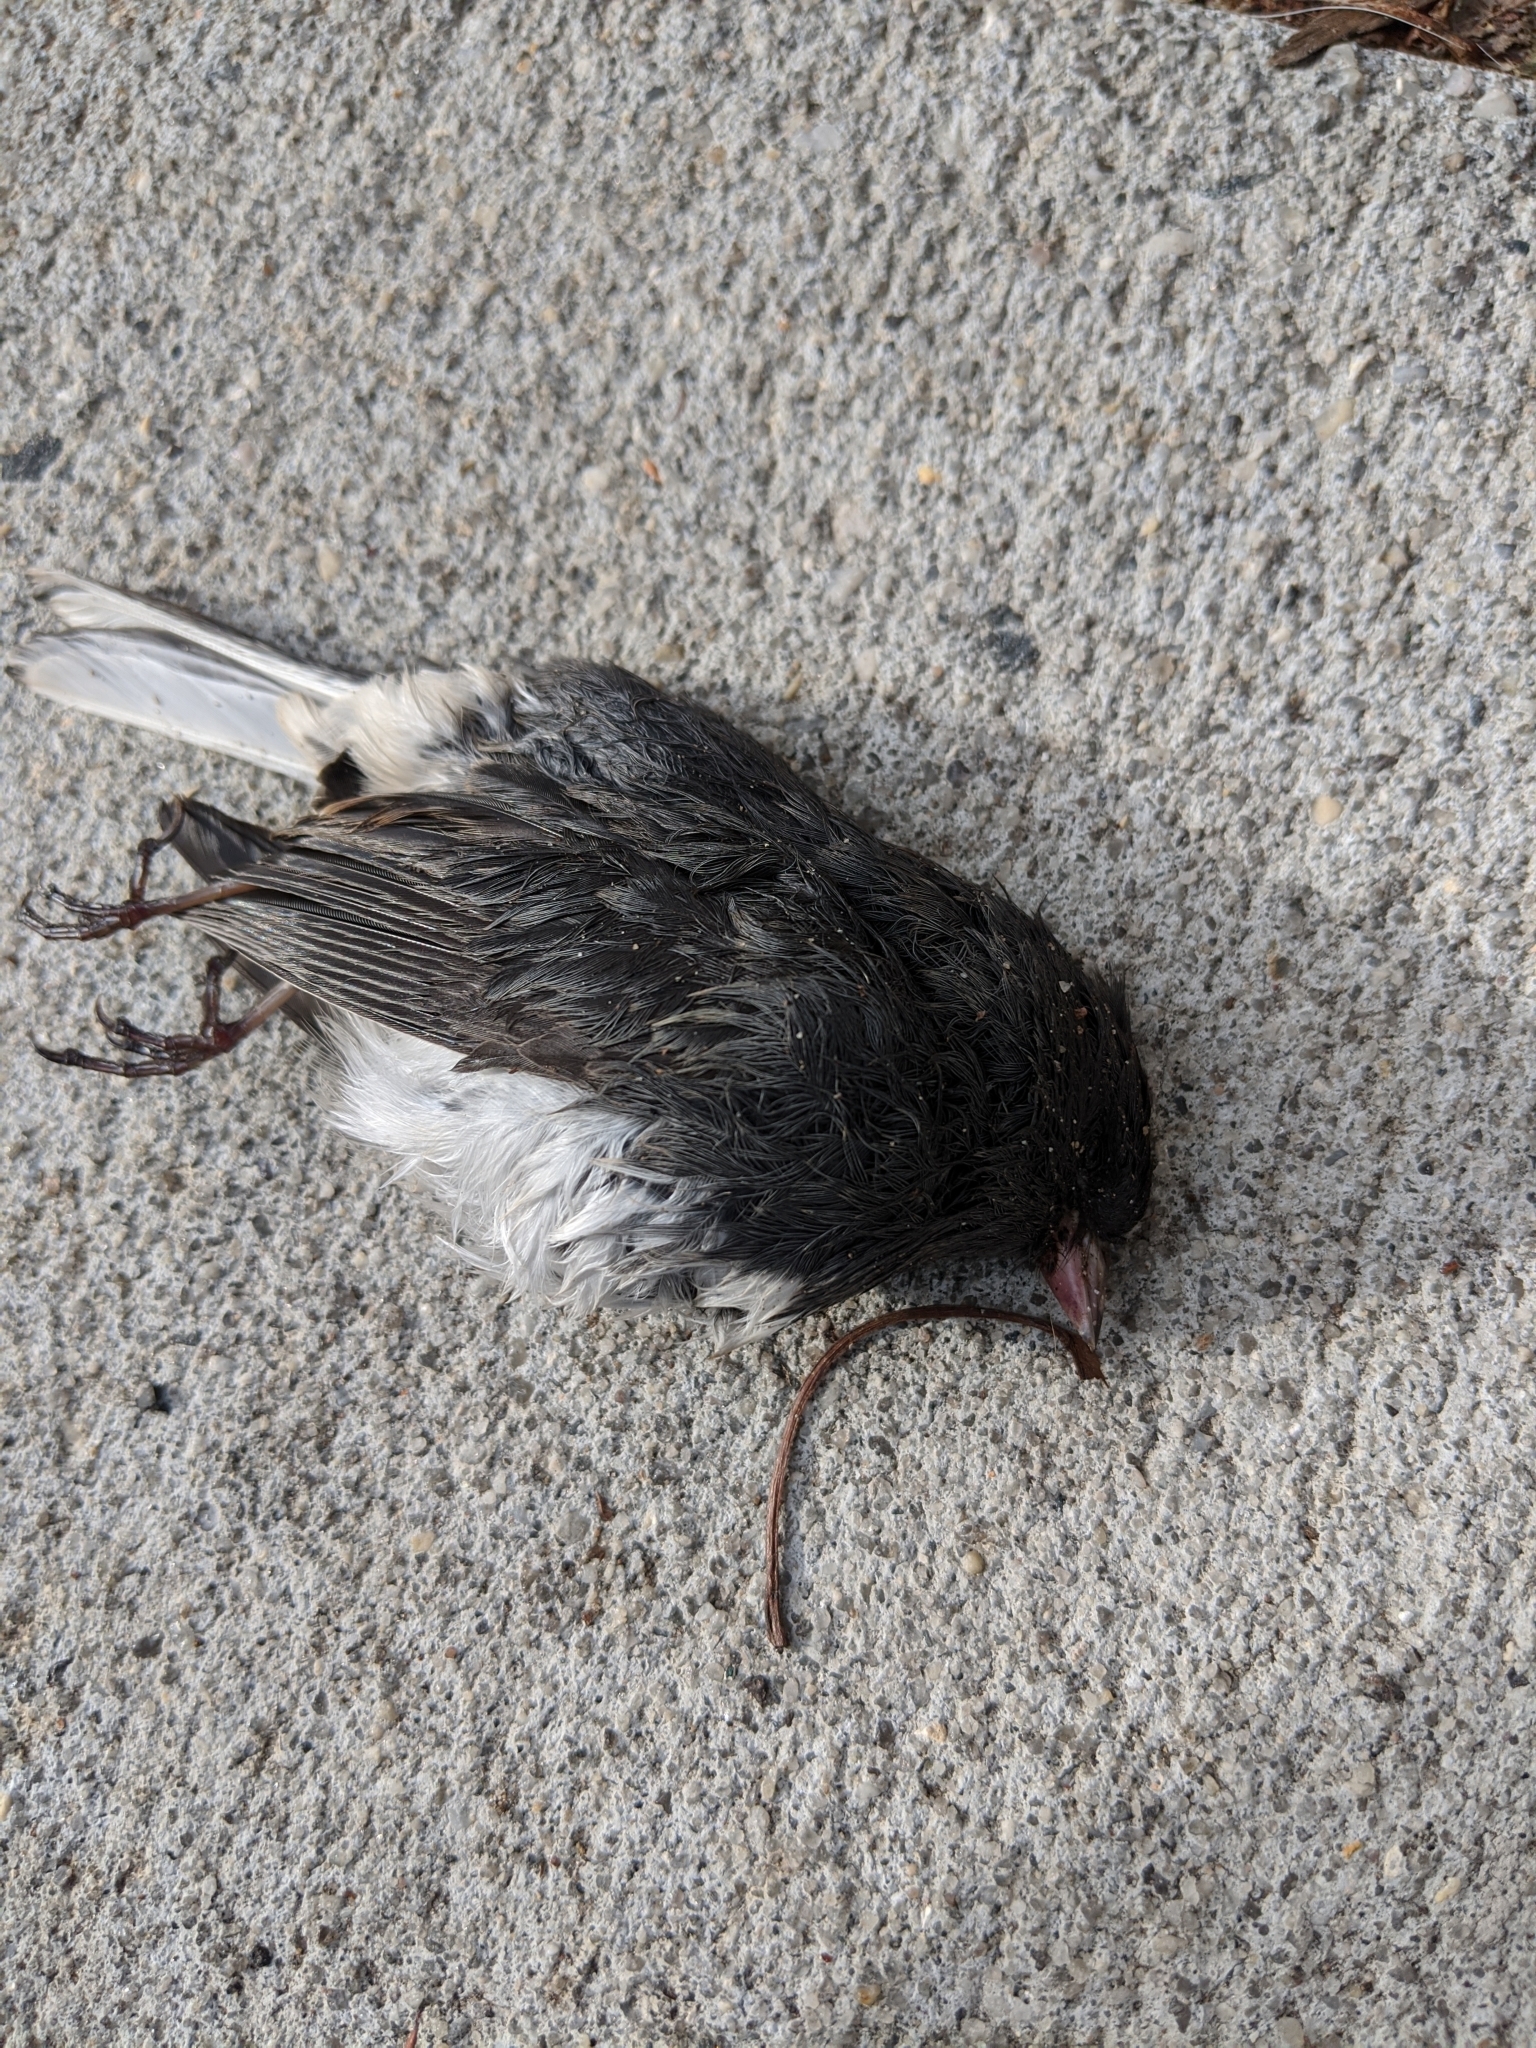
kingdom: Animalia
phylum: Chordata
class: Aves
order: Passeriformes
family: Passerellidae
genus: Junco
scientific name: Junco hyemalis
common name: Dark-eyed junco
